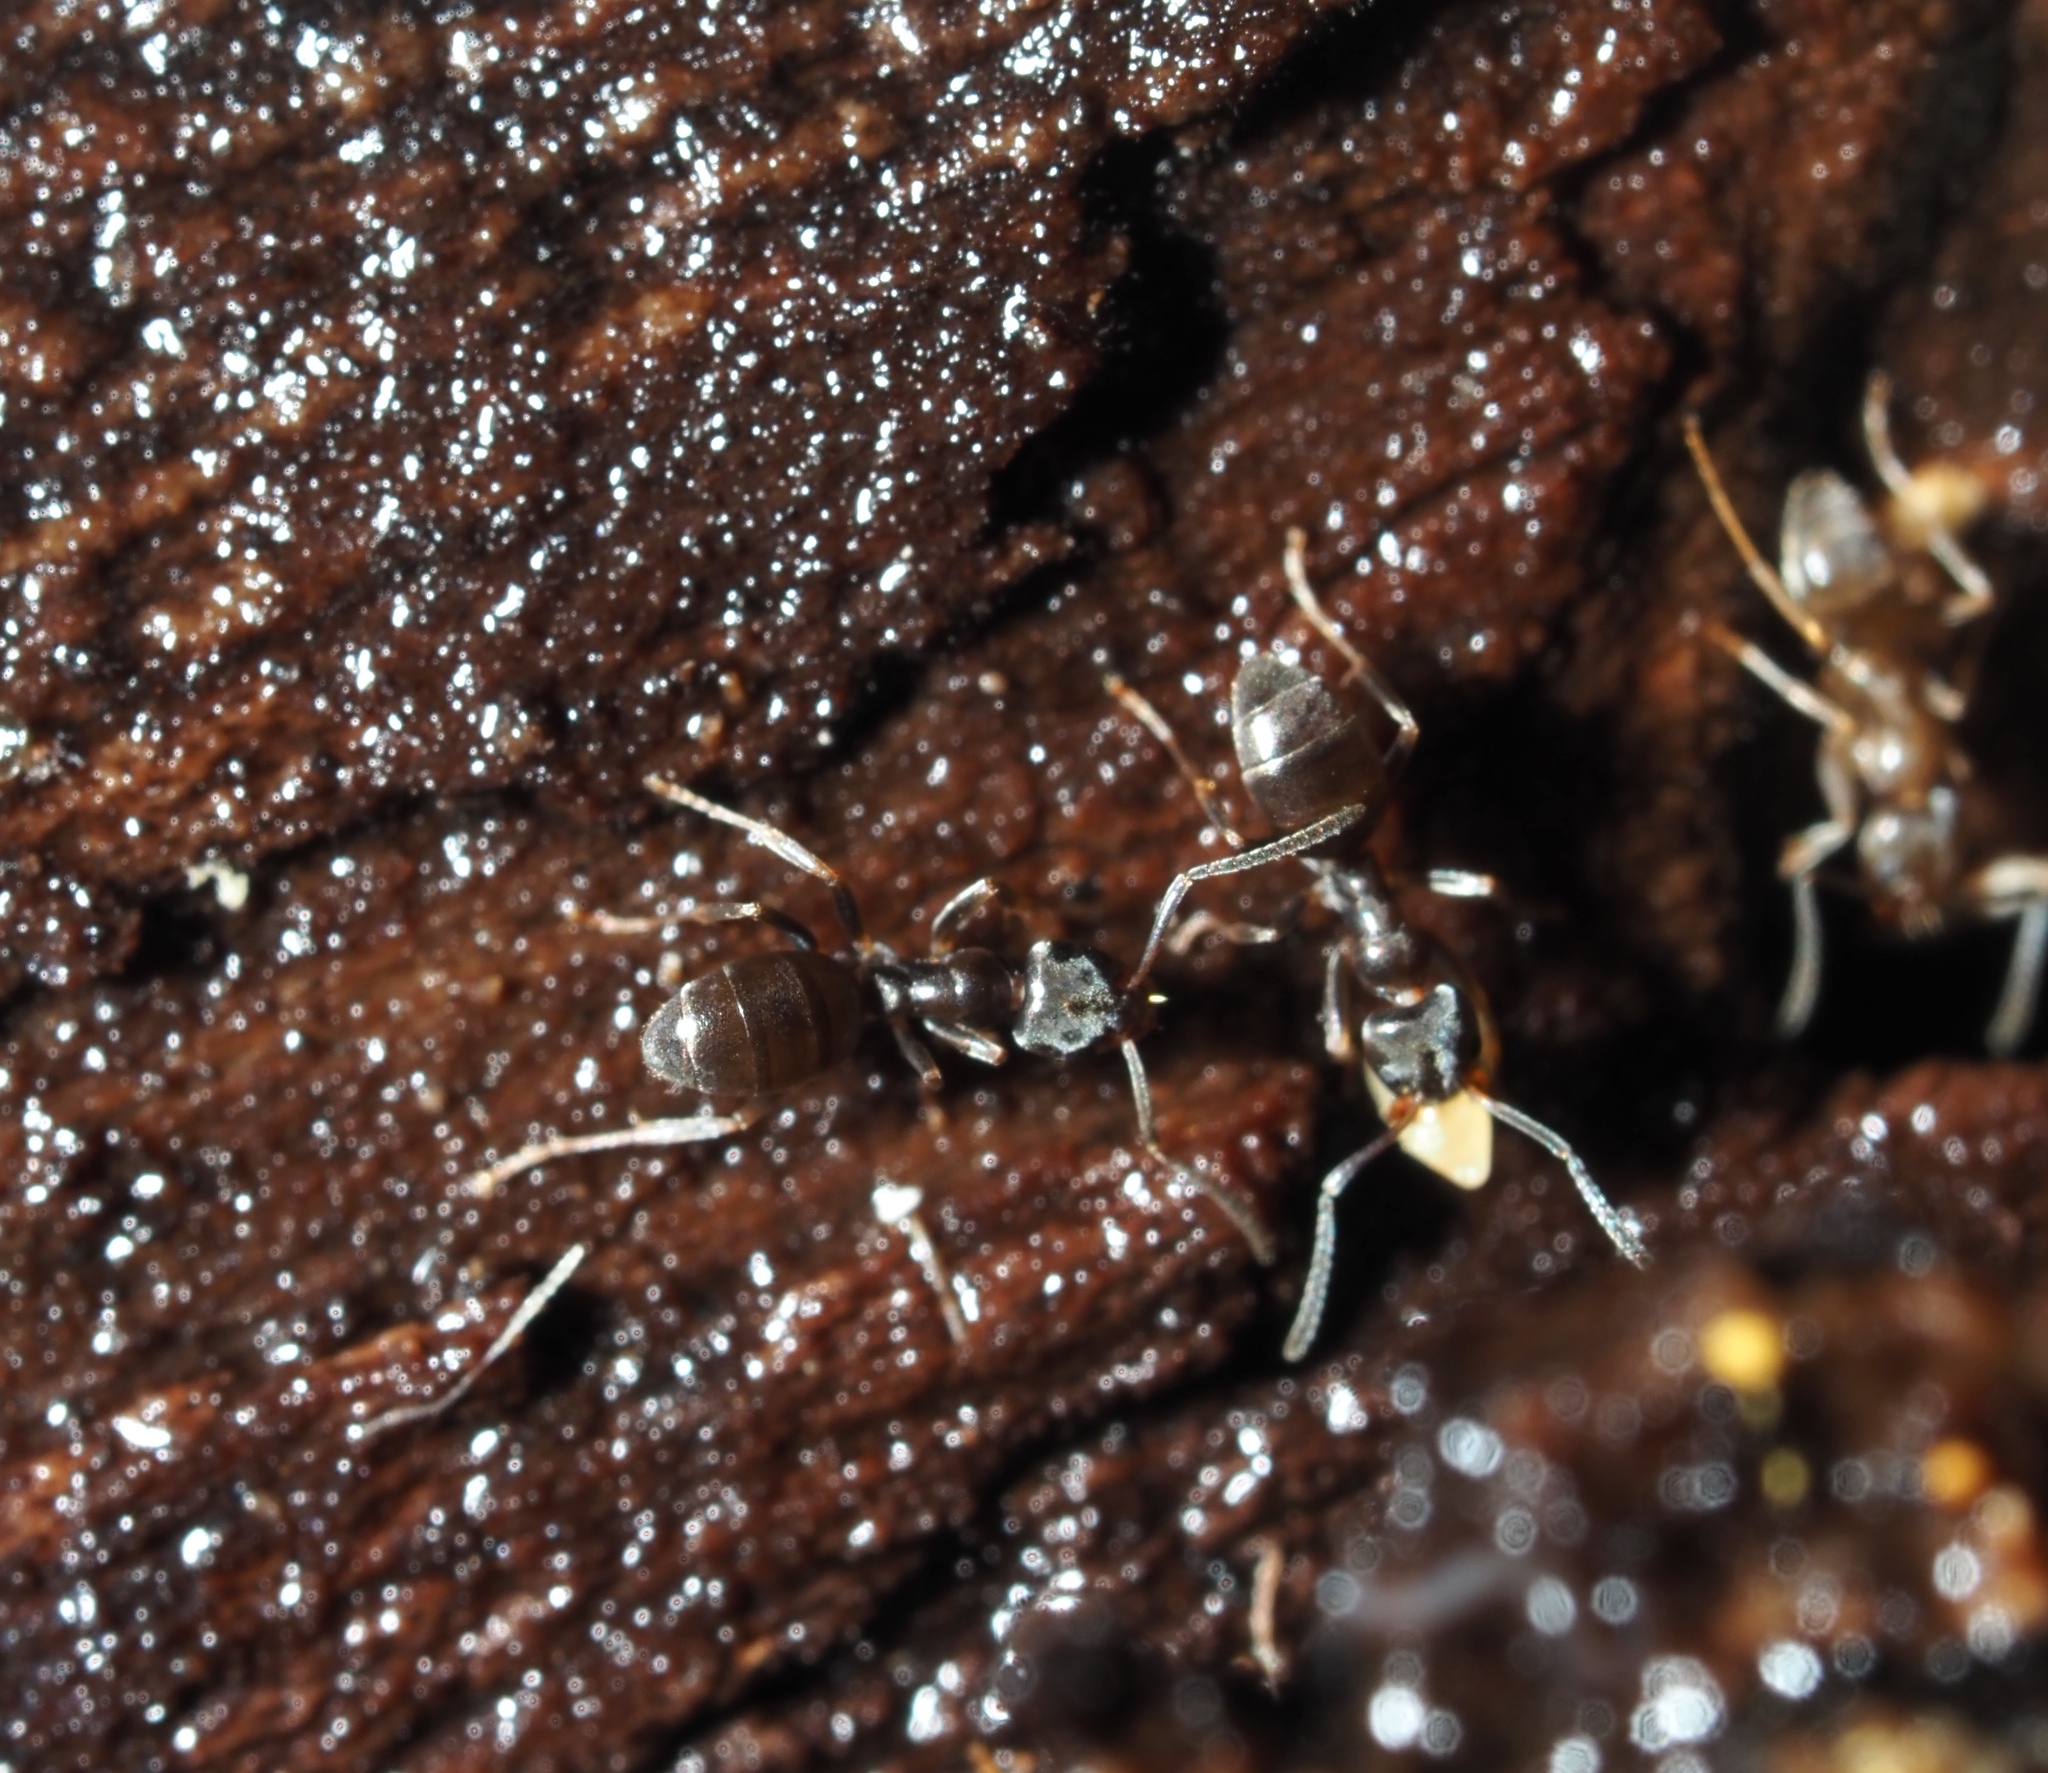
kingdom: Animalia
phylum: Arthropoda
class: Insecta
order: Hymenoptera
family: Formicidae
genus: Tapinoma
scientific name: Tapinoma sessile
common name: Odorous house ant
